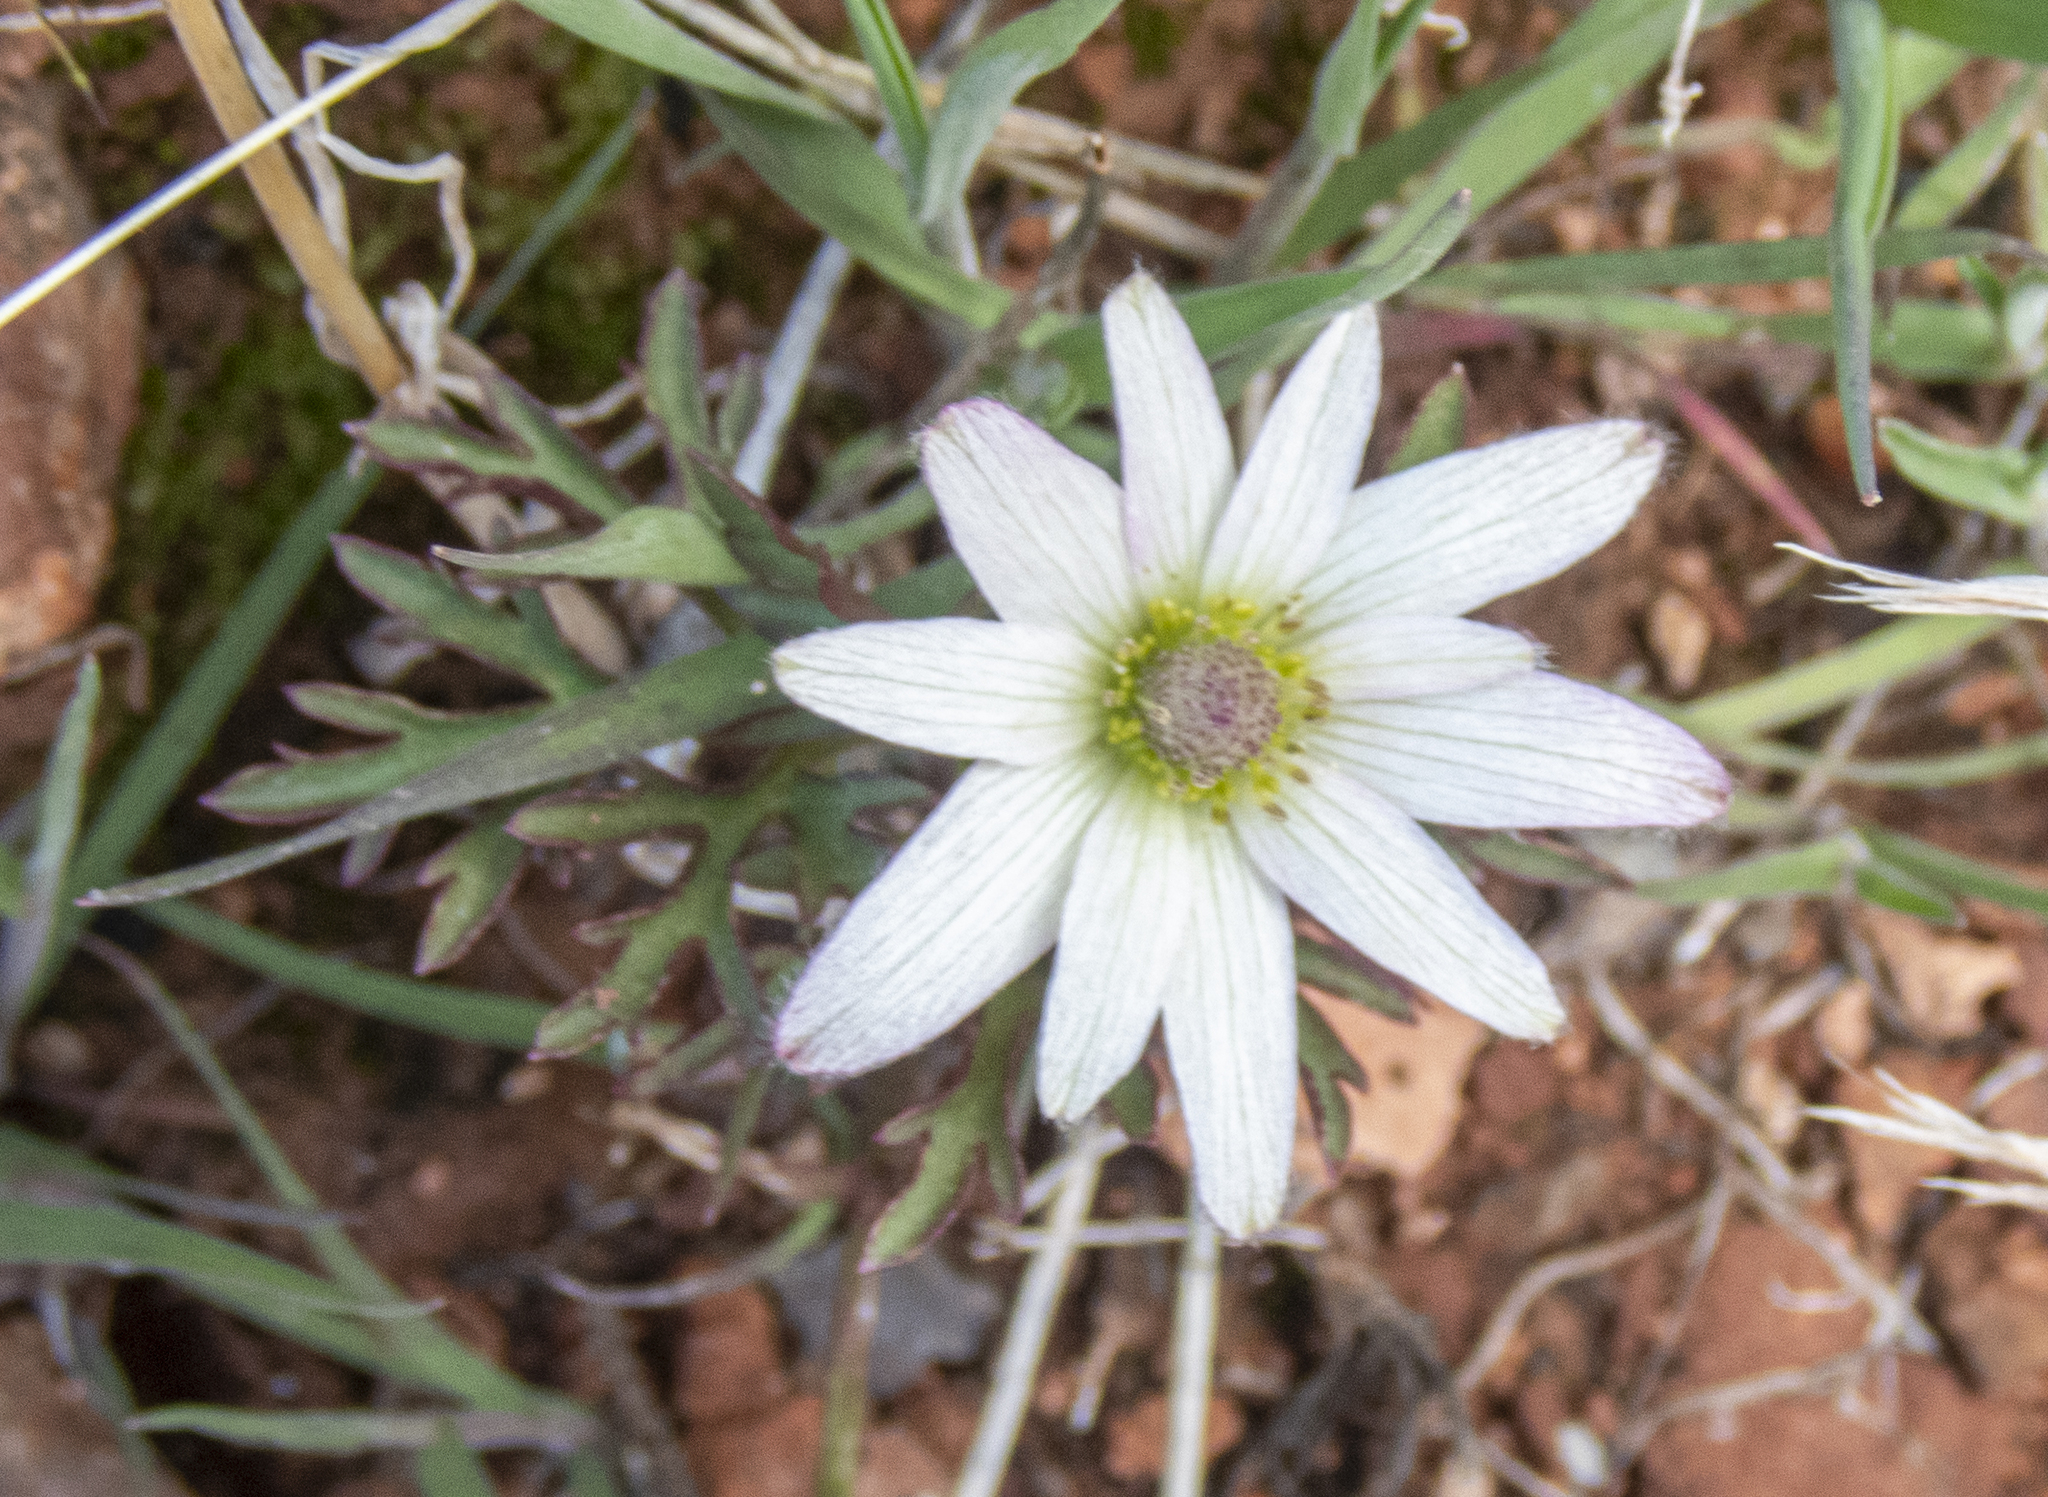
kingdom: Plantae
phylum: Tracheophyta
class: Magnoliopsida
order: Ranunculales
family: Ranunculaceae
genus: Anemone
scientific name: Anemone tuberosa
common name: Desert anemone
